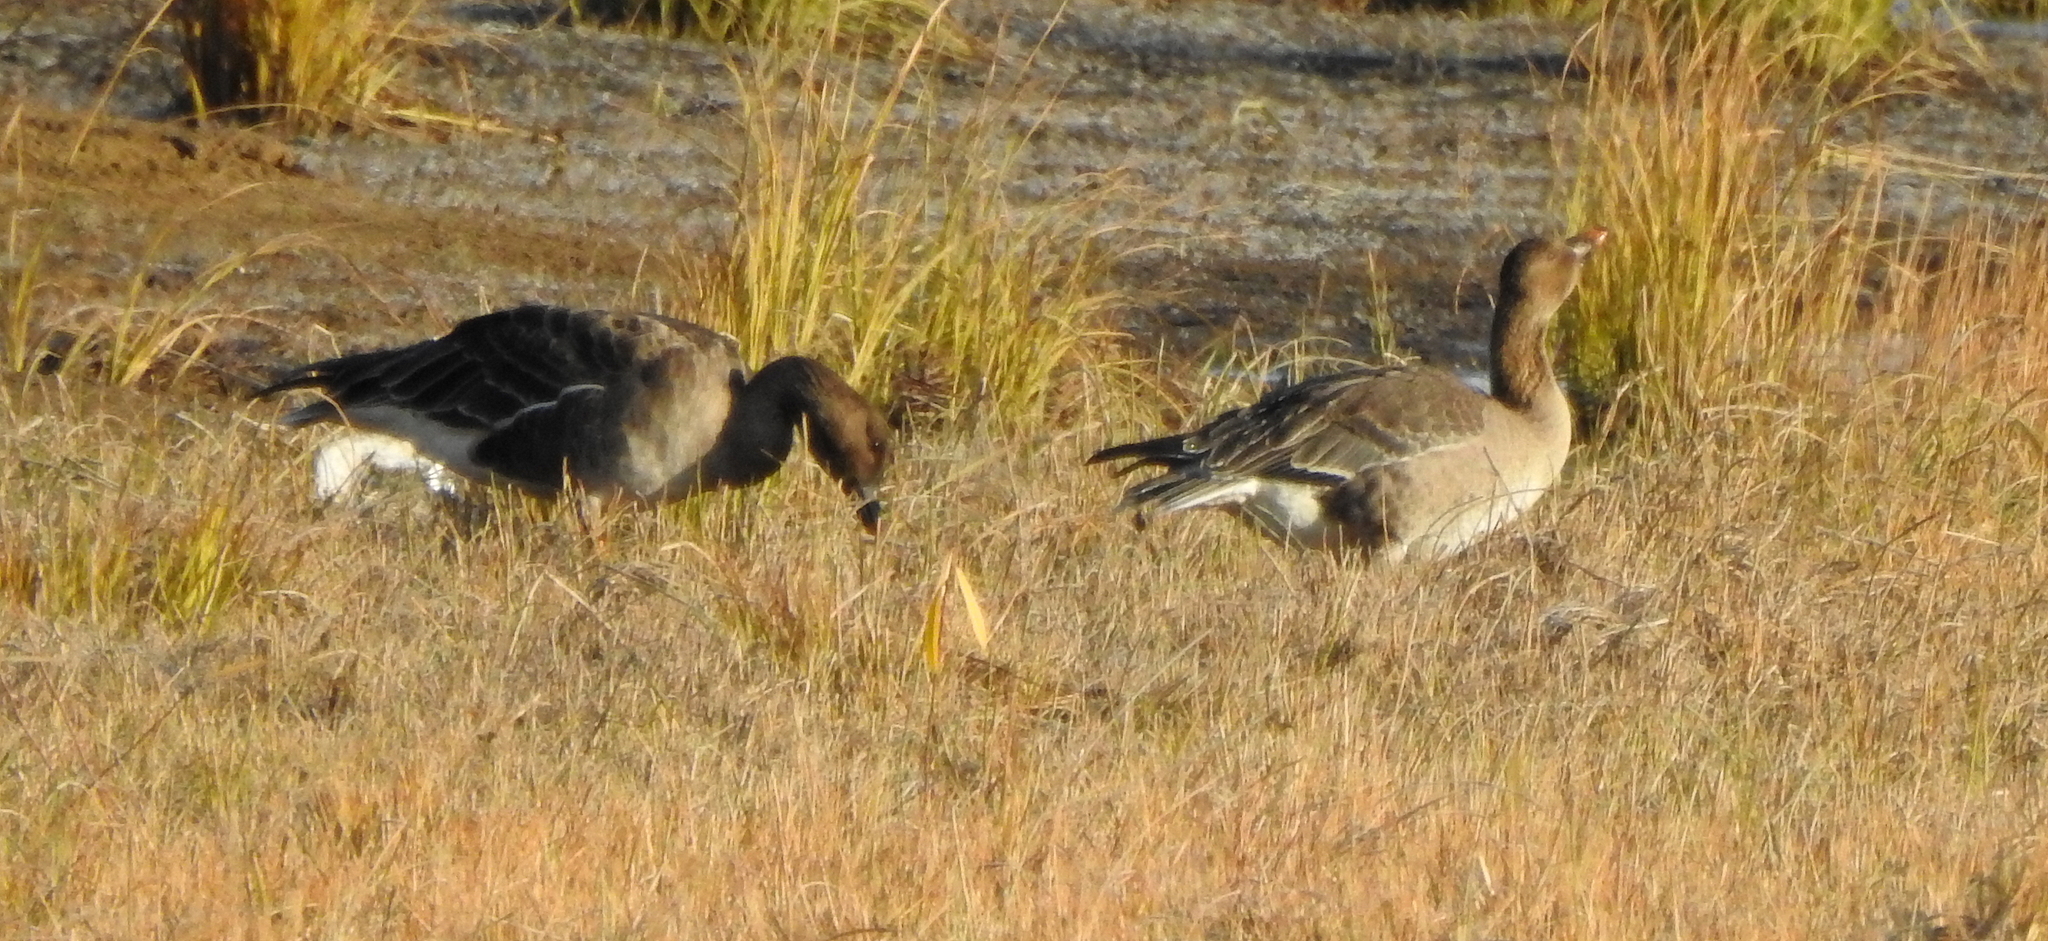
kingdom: Animalia
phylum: Chordata
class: Aves
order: Anseriformes
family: Anatidae
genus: Anser
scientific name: Anser fabalis
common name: Bean goose
